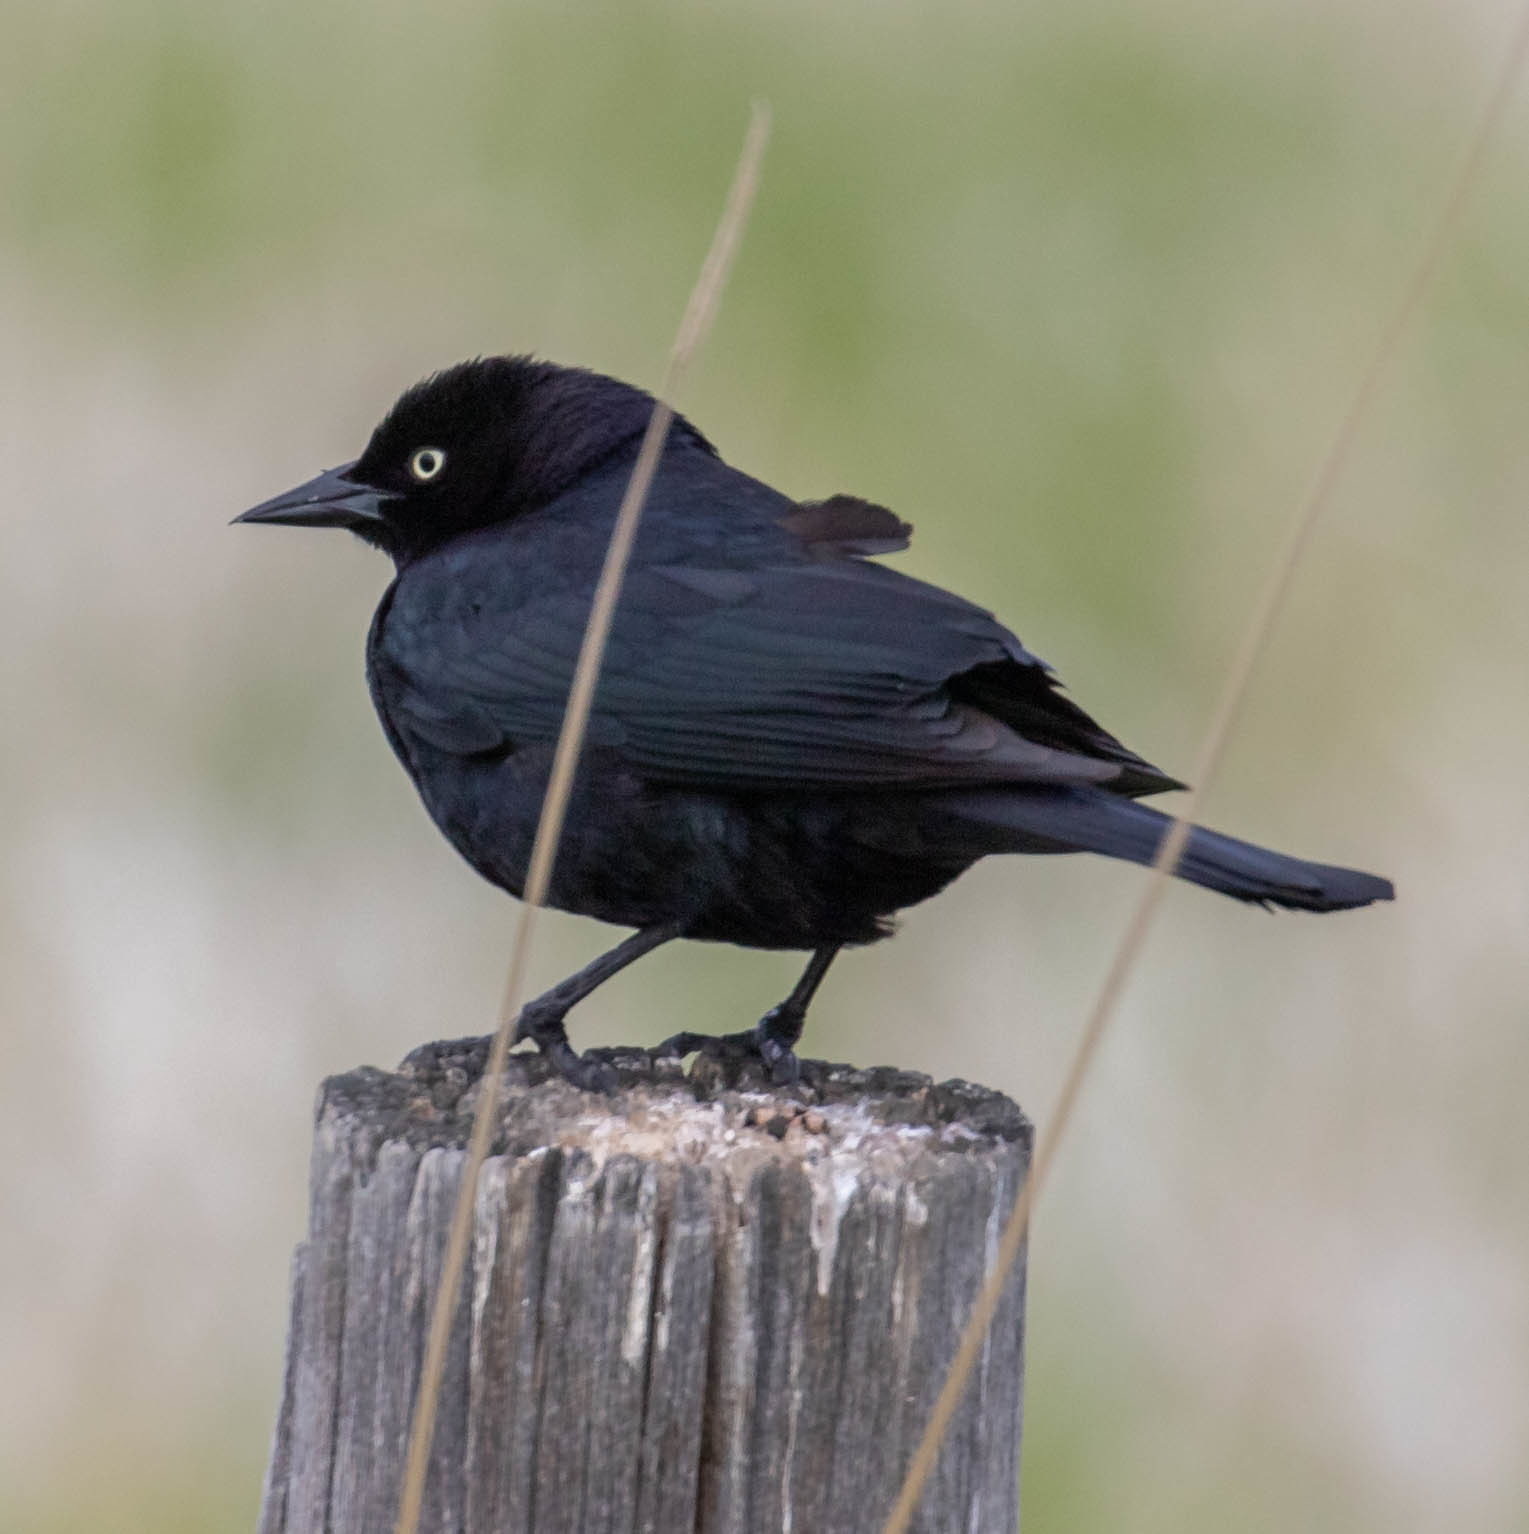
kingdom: Animalia
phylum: Chordata
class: Aves
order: Passeriformes
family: Icteridae
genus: Euphagus
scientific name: Euphagus cyanocephalus
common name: Brewer's blackbird
